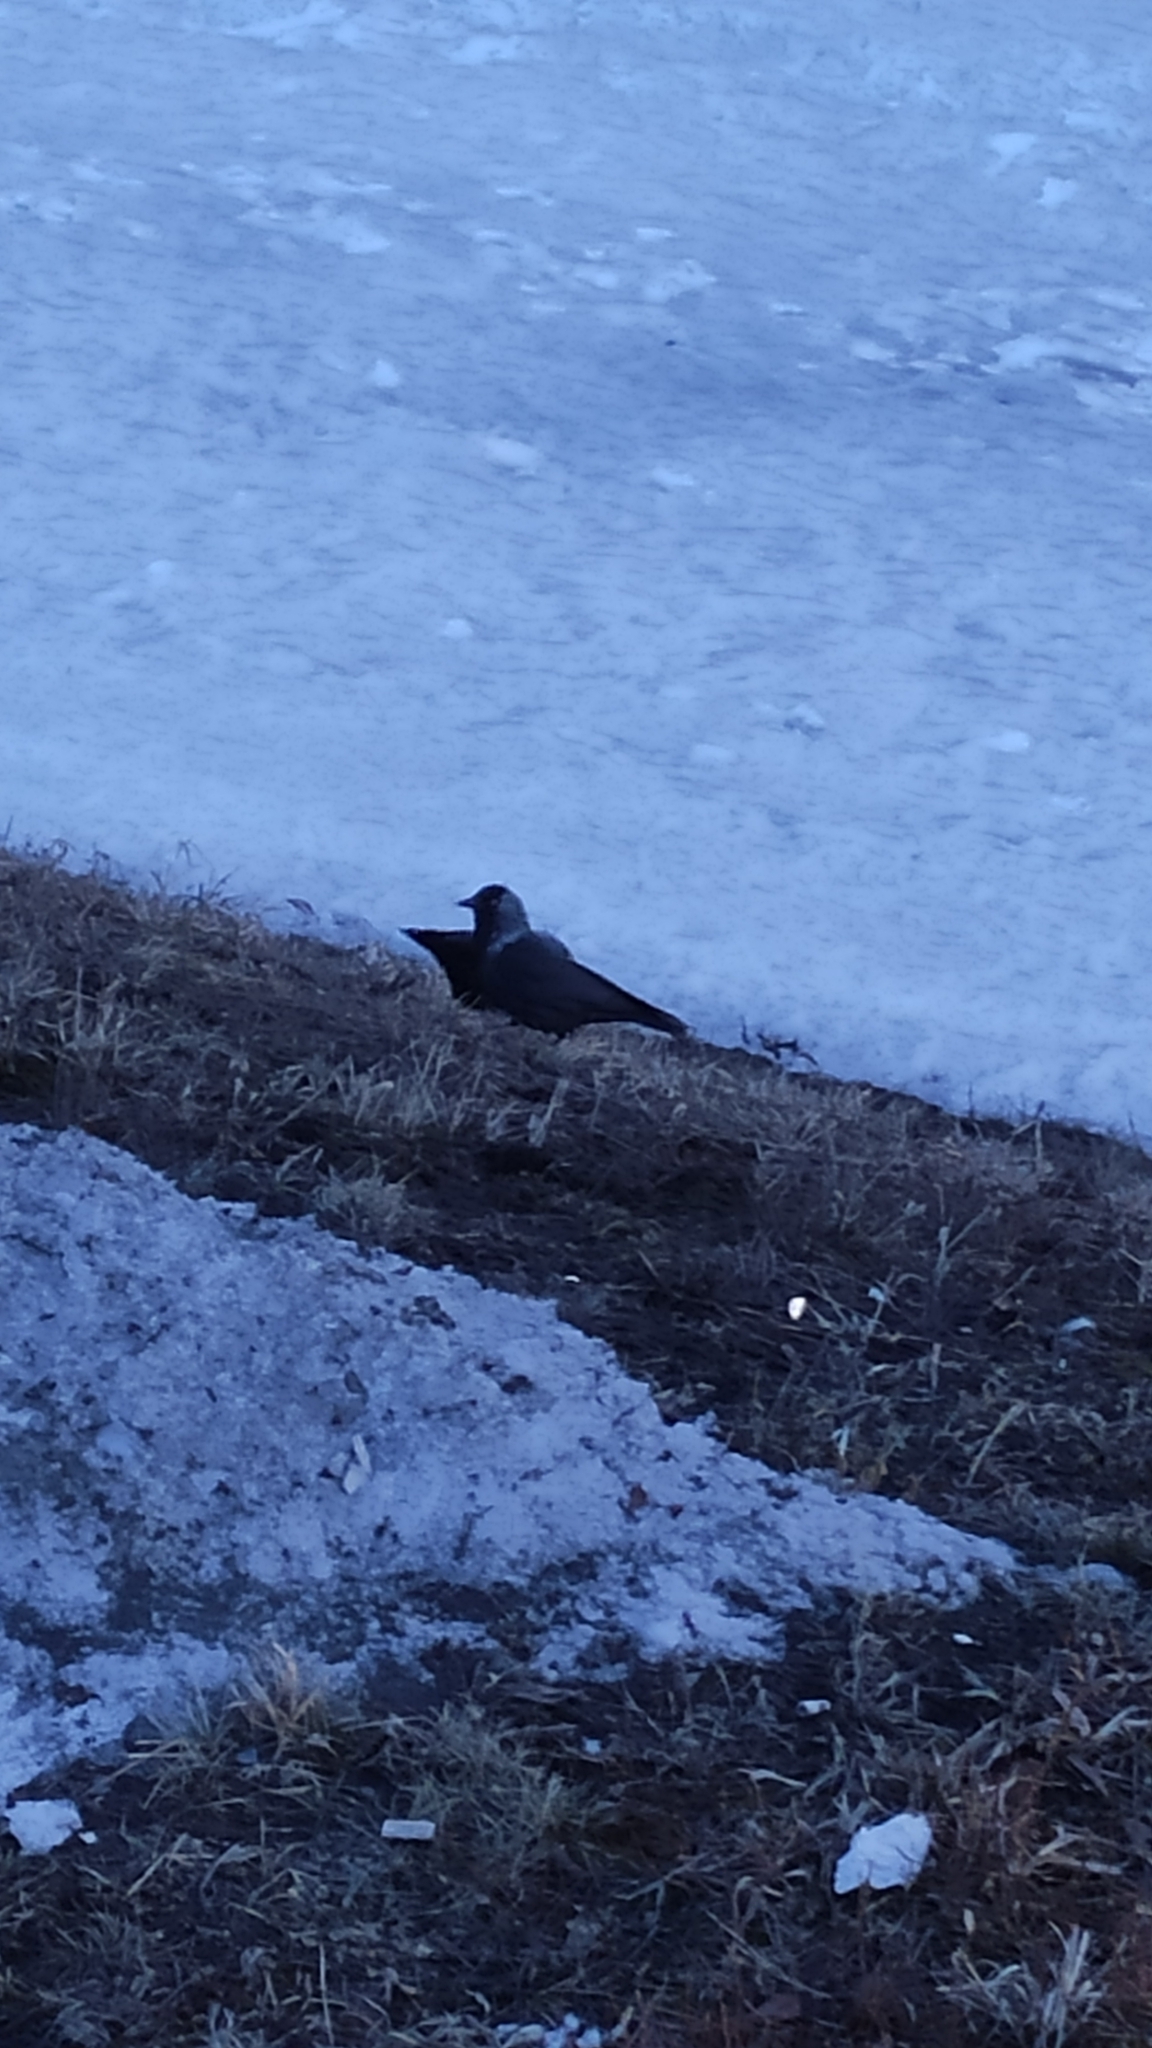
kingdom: Animalia
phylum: Chordata
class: Aves
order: Passeriformes
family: Corvidae
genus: Coloeus
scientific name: Coloeus monedula
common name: Western jackdaw
